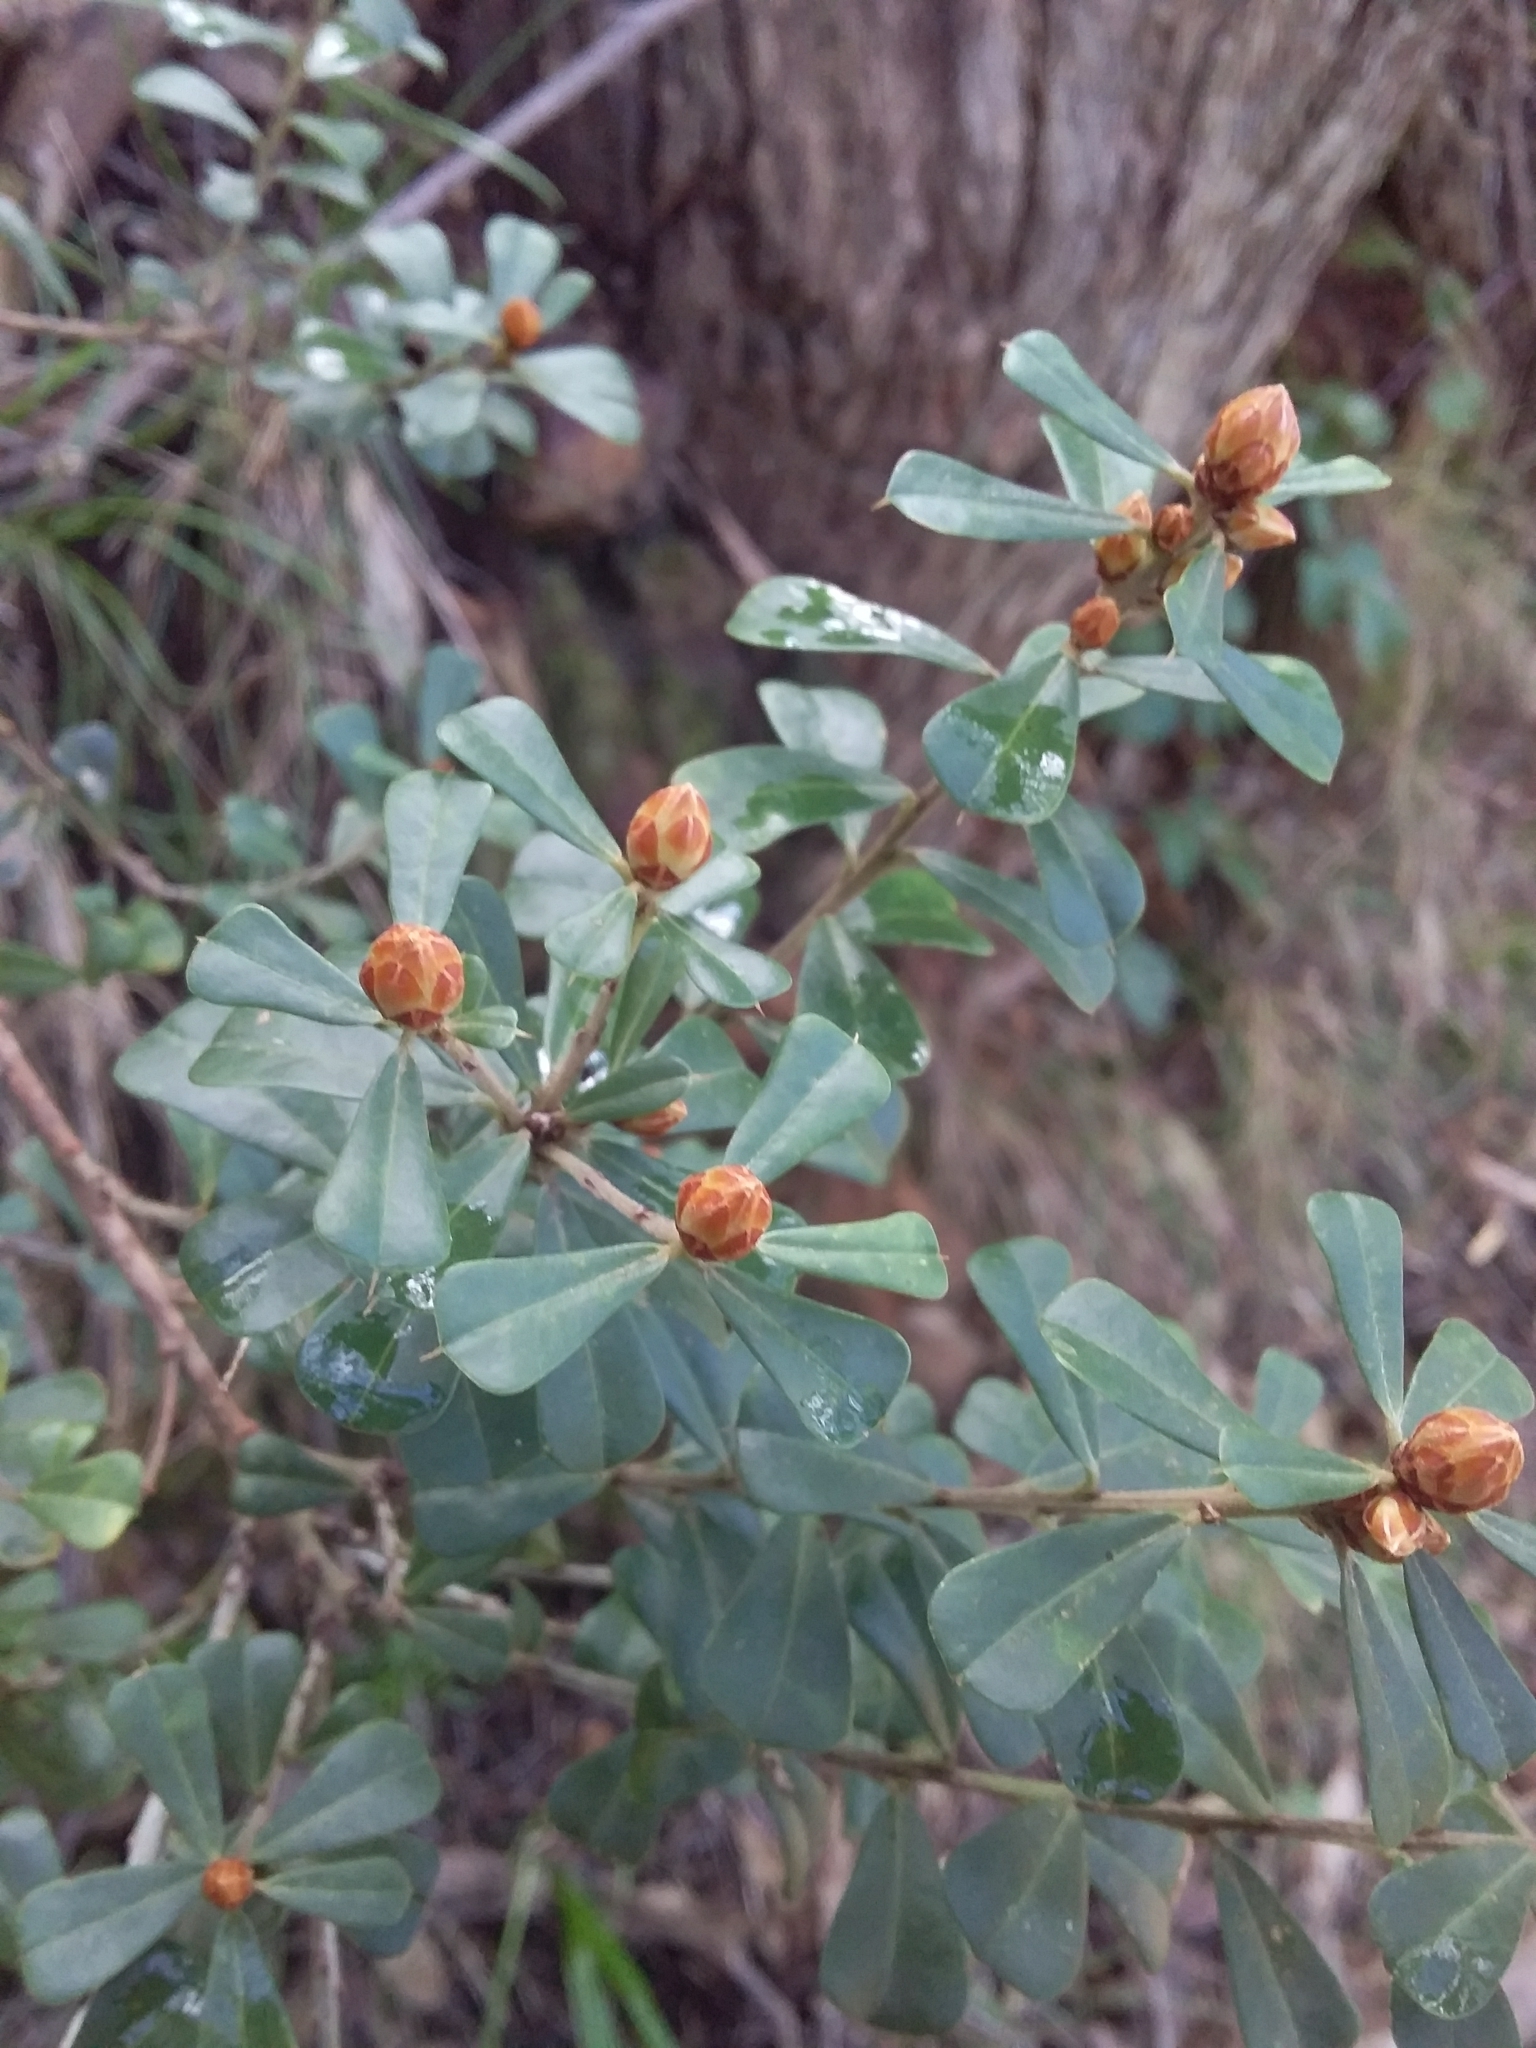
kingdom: Plantae
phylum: Tracheophyta
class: Magnoliopsida
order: Fabales
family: Fabaceae
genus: Pultenaea
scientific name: Pultenaea daphnoides
